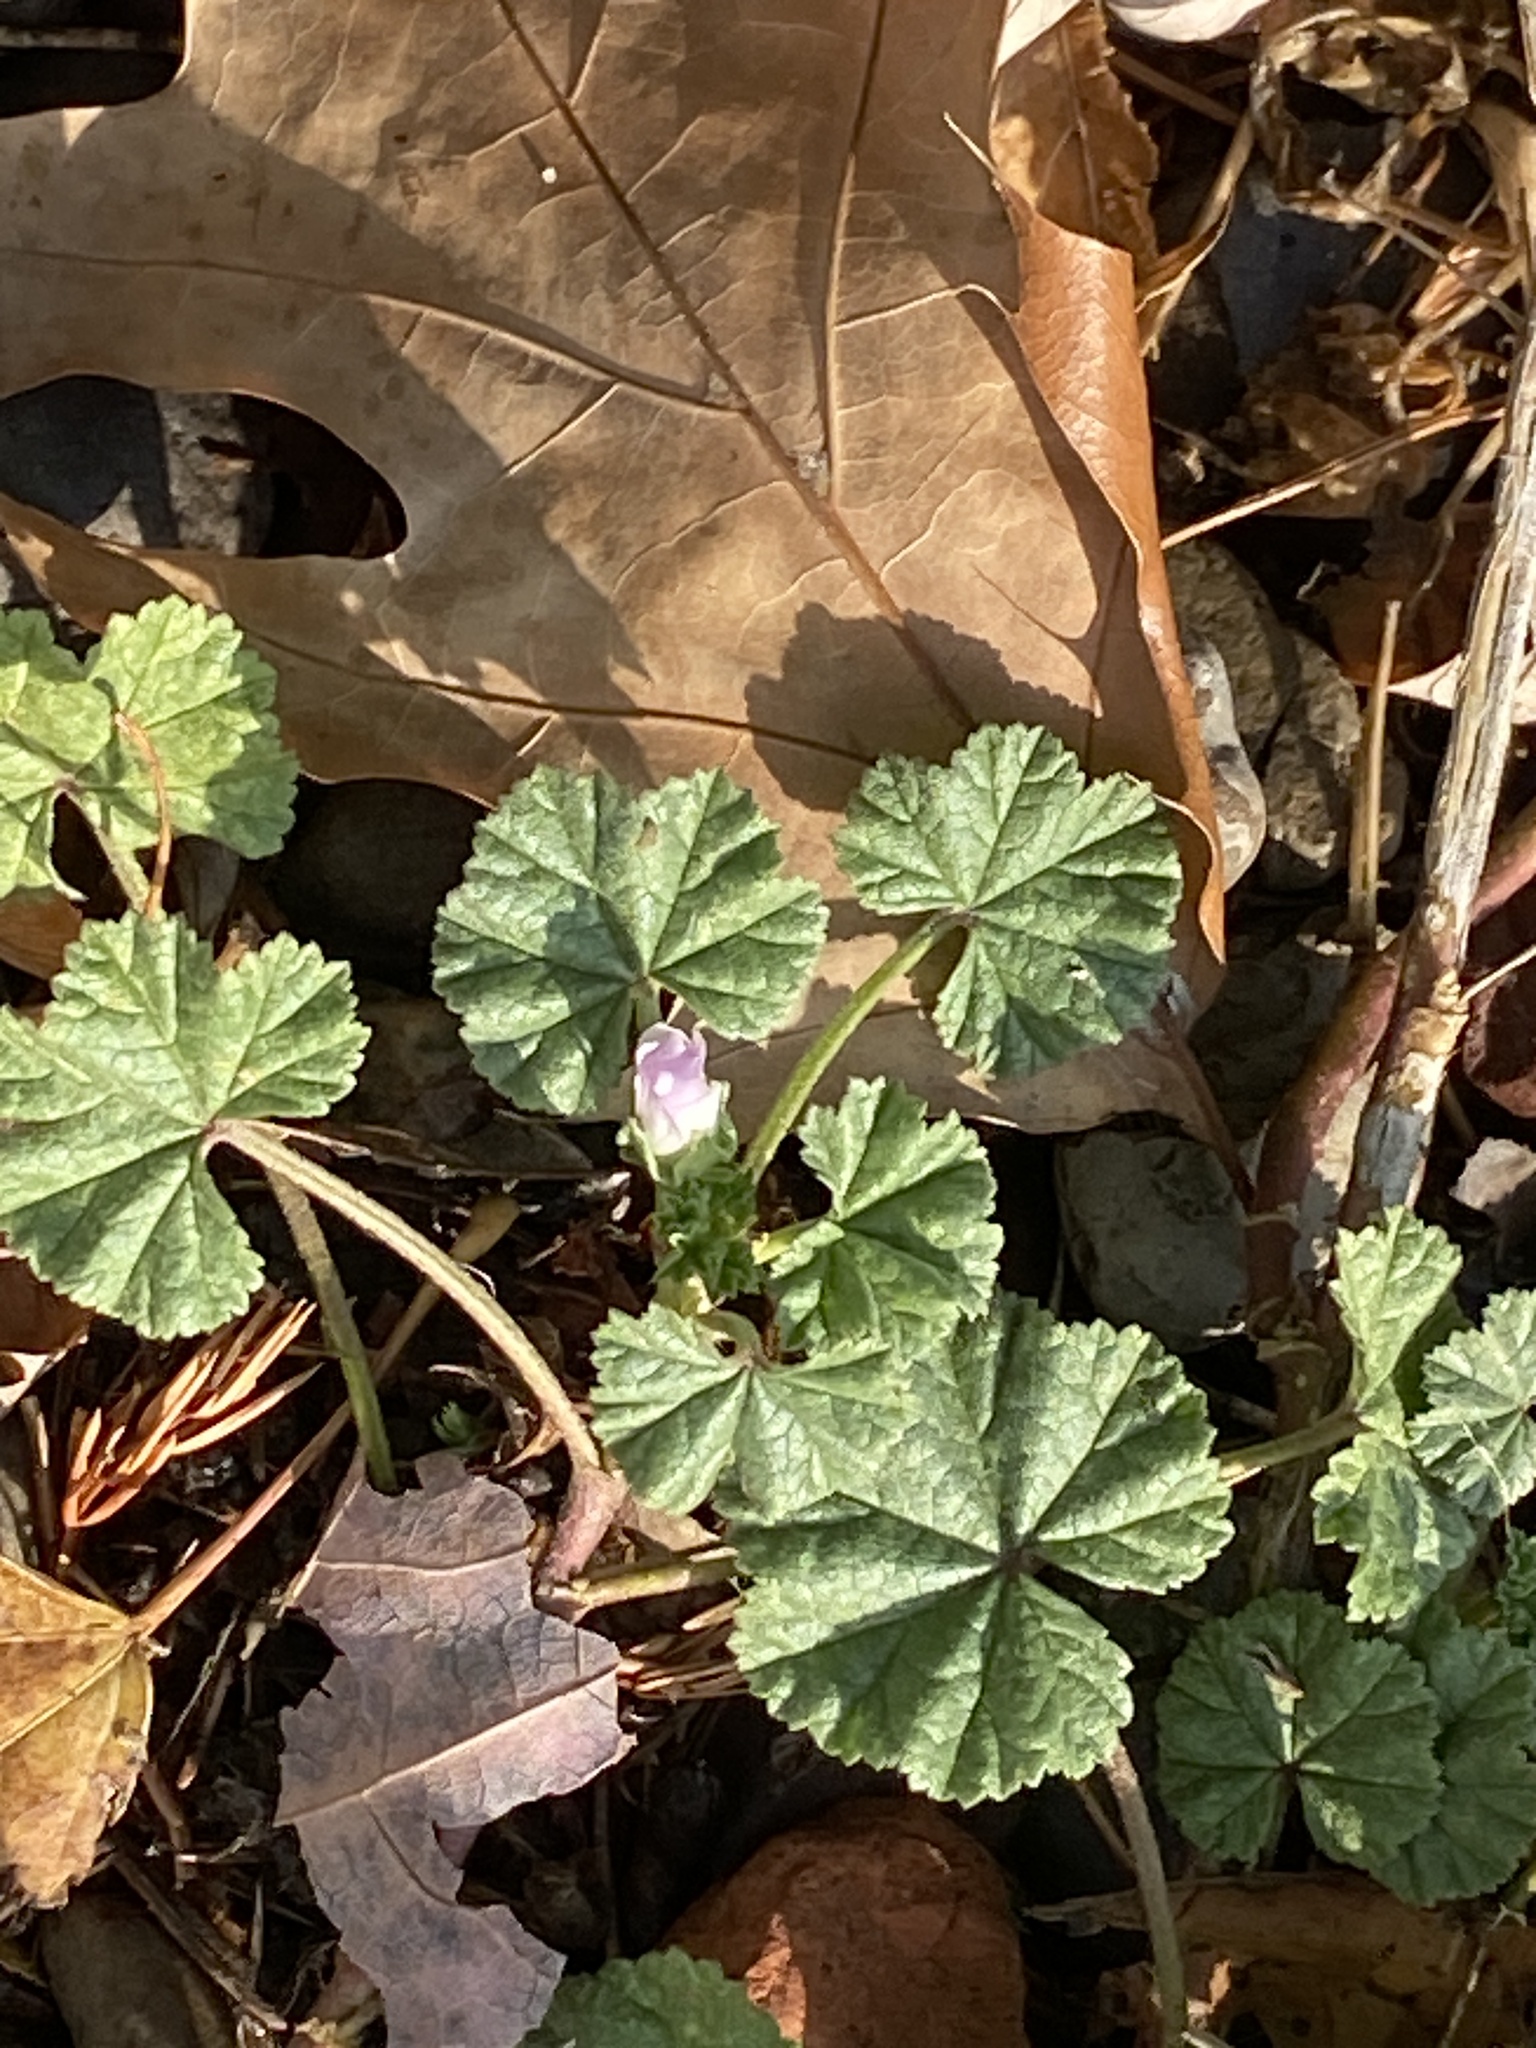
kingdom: Plantae
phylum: Tracheophyta
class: Magnoliopsida
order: Malvales
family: Malvaceae
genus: Malva
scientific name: Malva neglecta
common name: Common mallow
